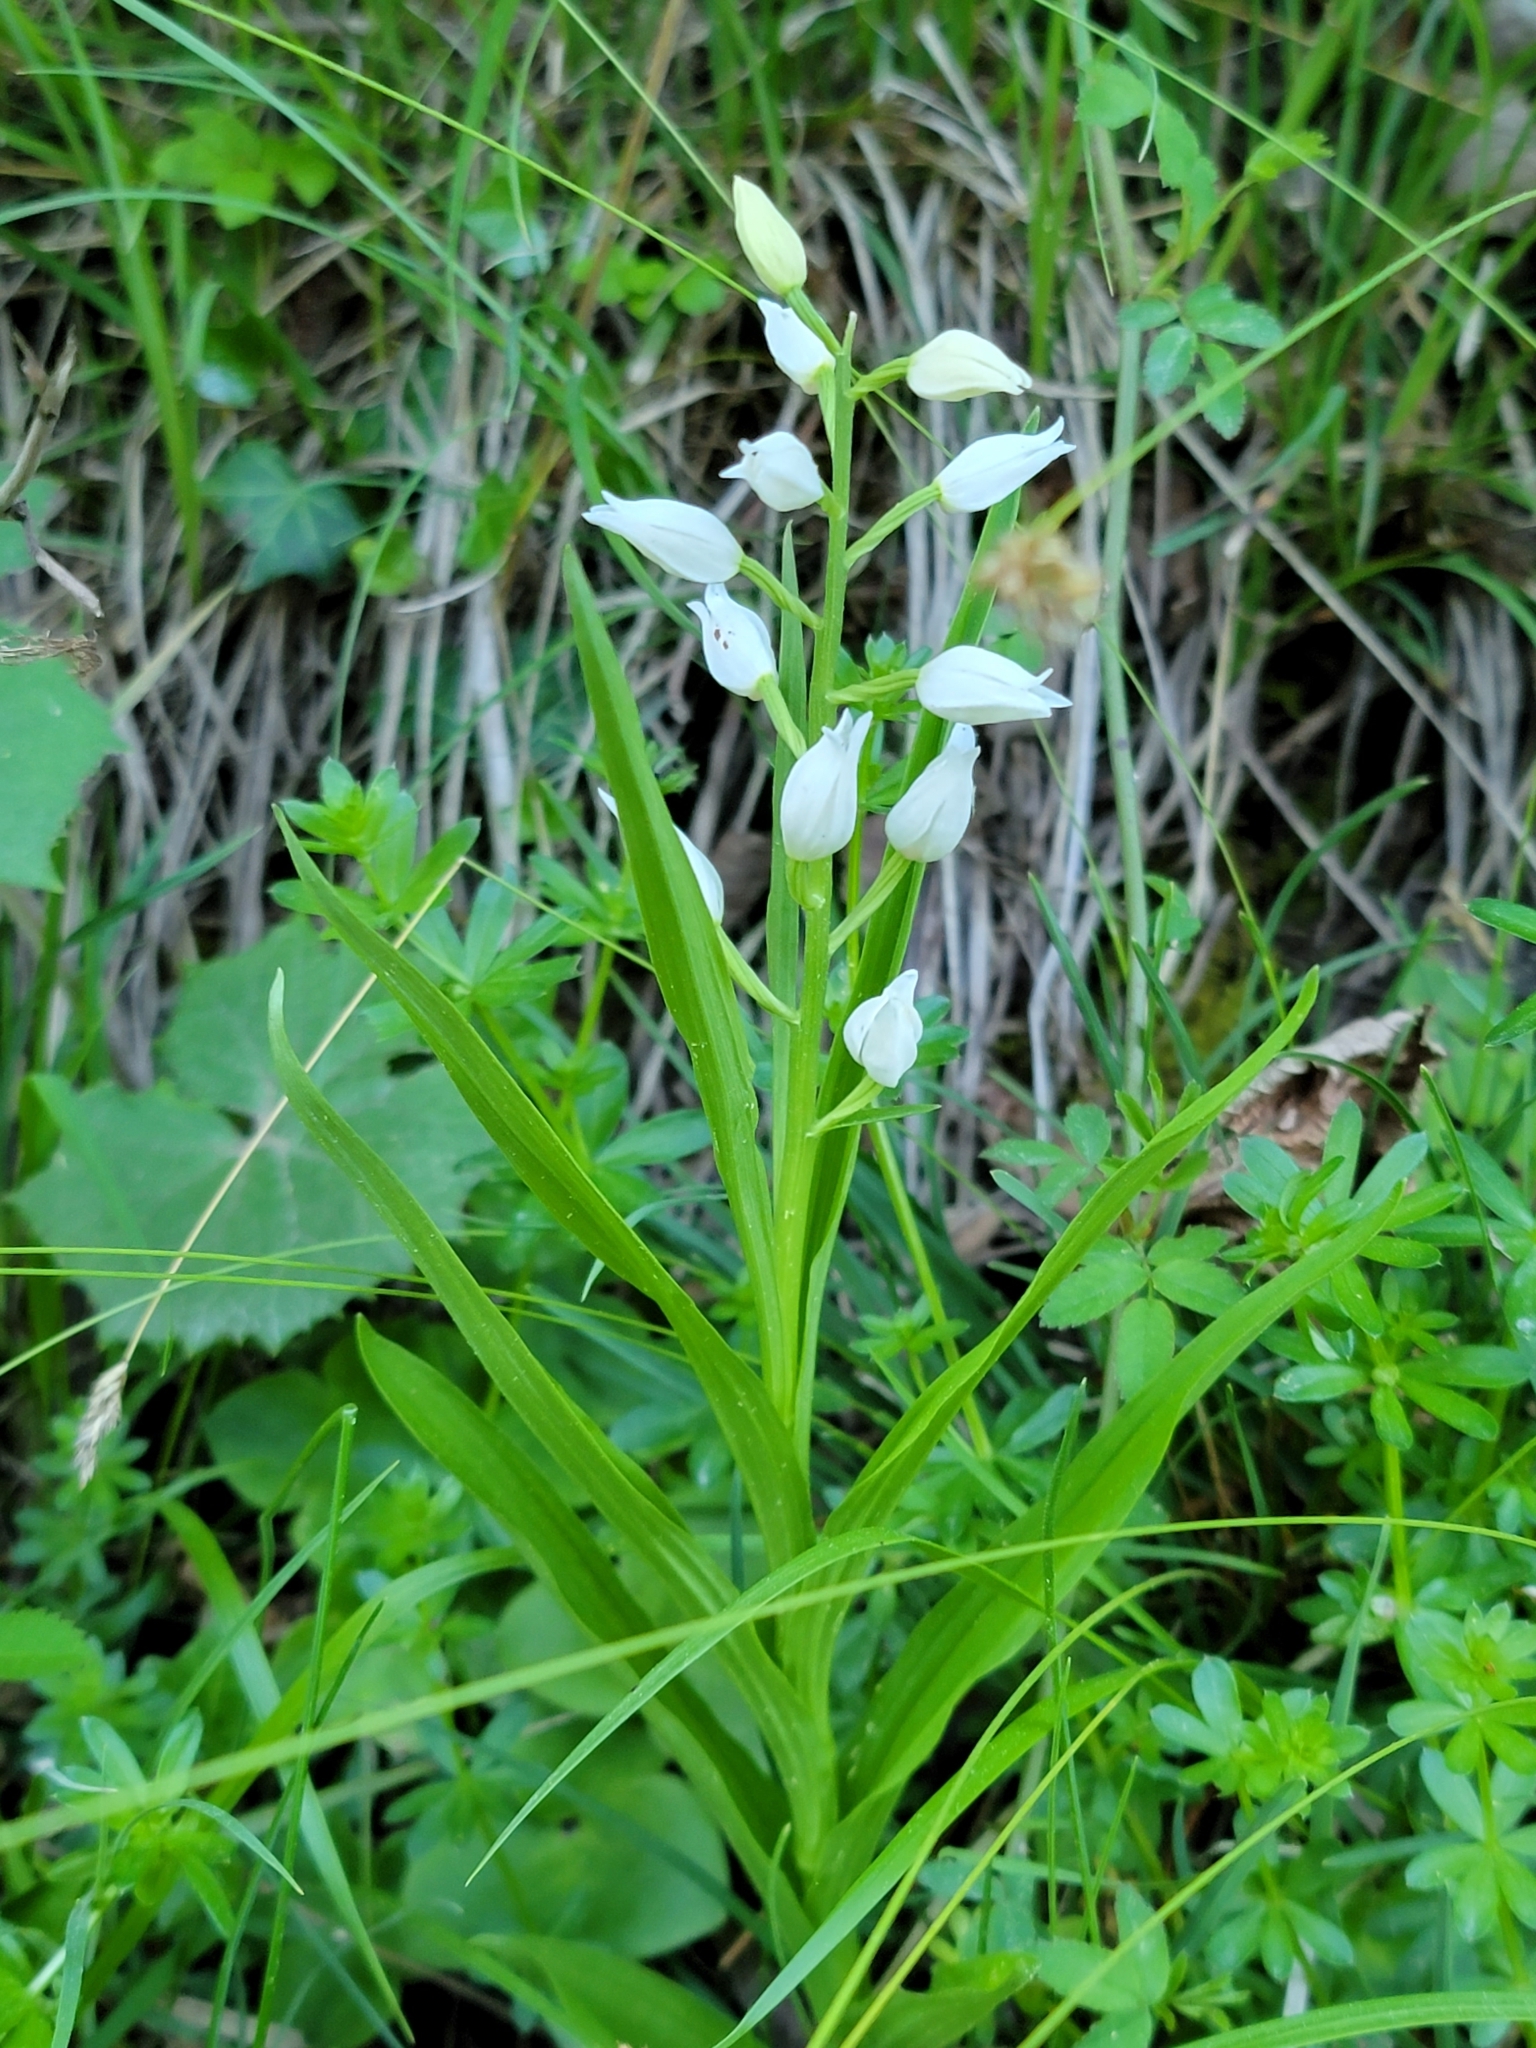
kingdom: Plantae
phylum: Tracheophyta
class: Liliopsida
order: Asparagales
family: Orchidaceae
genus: Cephalanthera
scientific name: Cephalanthera longifolia
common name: Narrow-leaved helleborine
